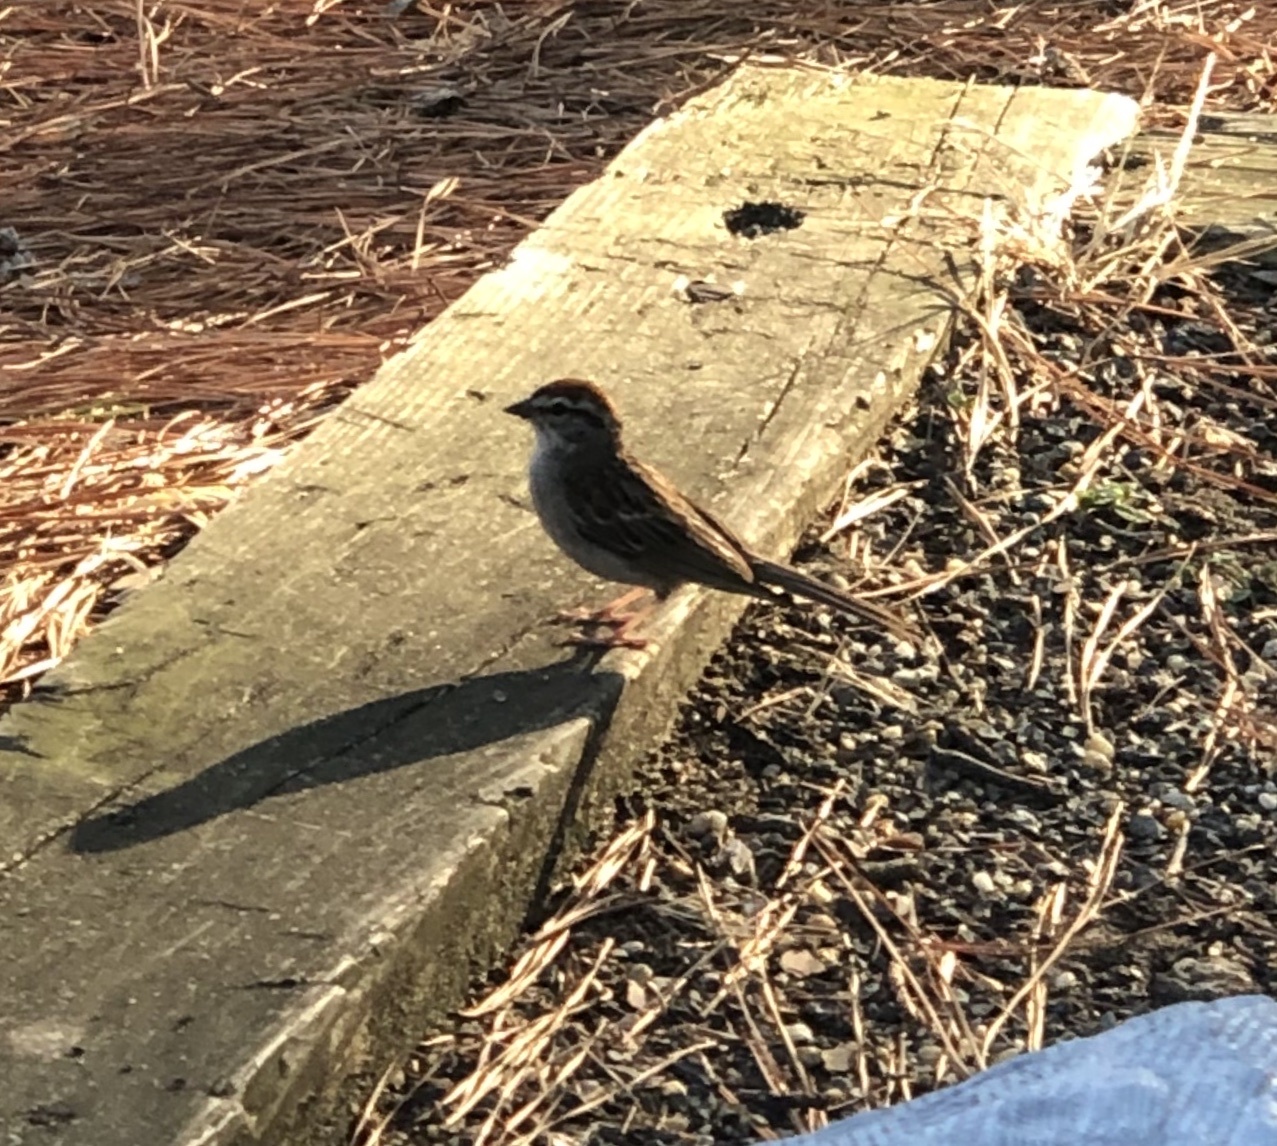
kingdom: Animalia
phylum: Chordata
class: Aves
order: Passeriformes
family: Passerellidae
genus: Spizella
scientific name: Spizella passerina
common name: Chipping sparrow
